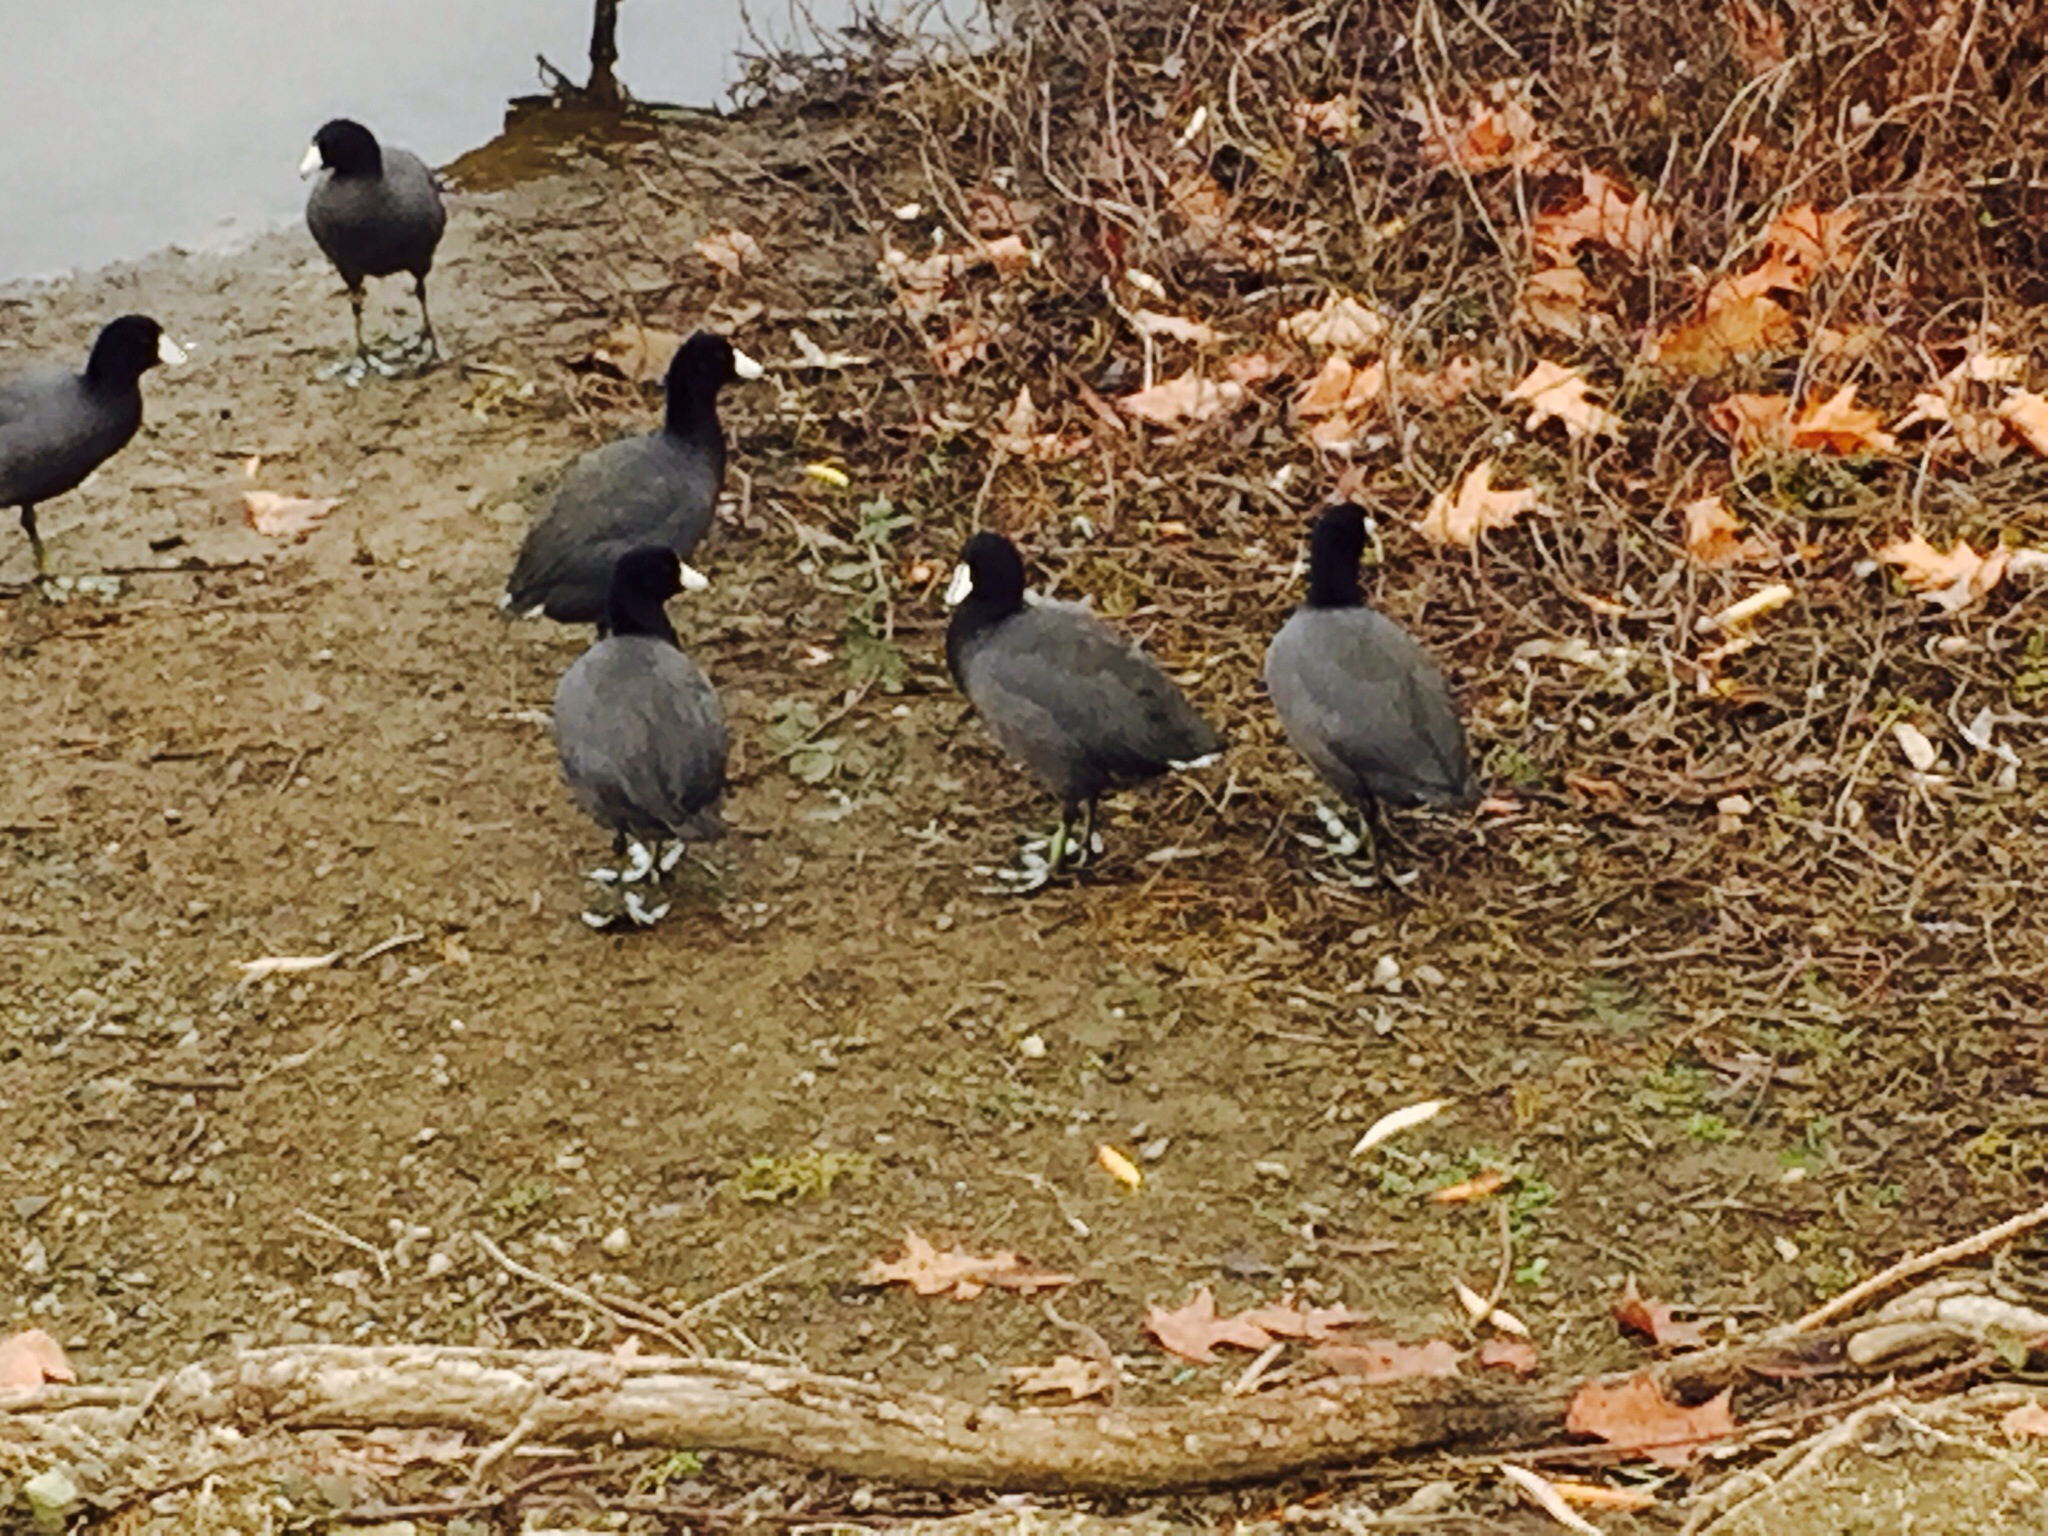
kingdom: Animalia
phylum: Chordata
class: Aves
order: Gruiformes
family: Rallidae
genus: Fulica
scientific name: Fulica americana
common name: American coot
